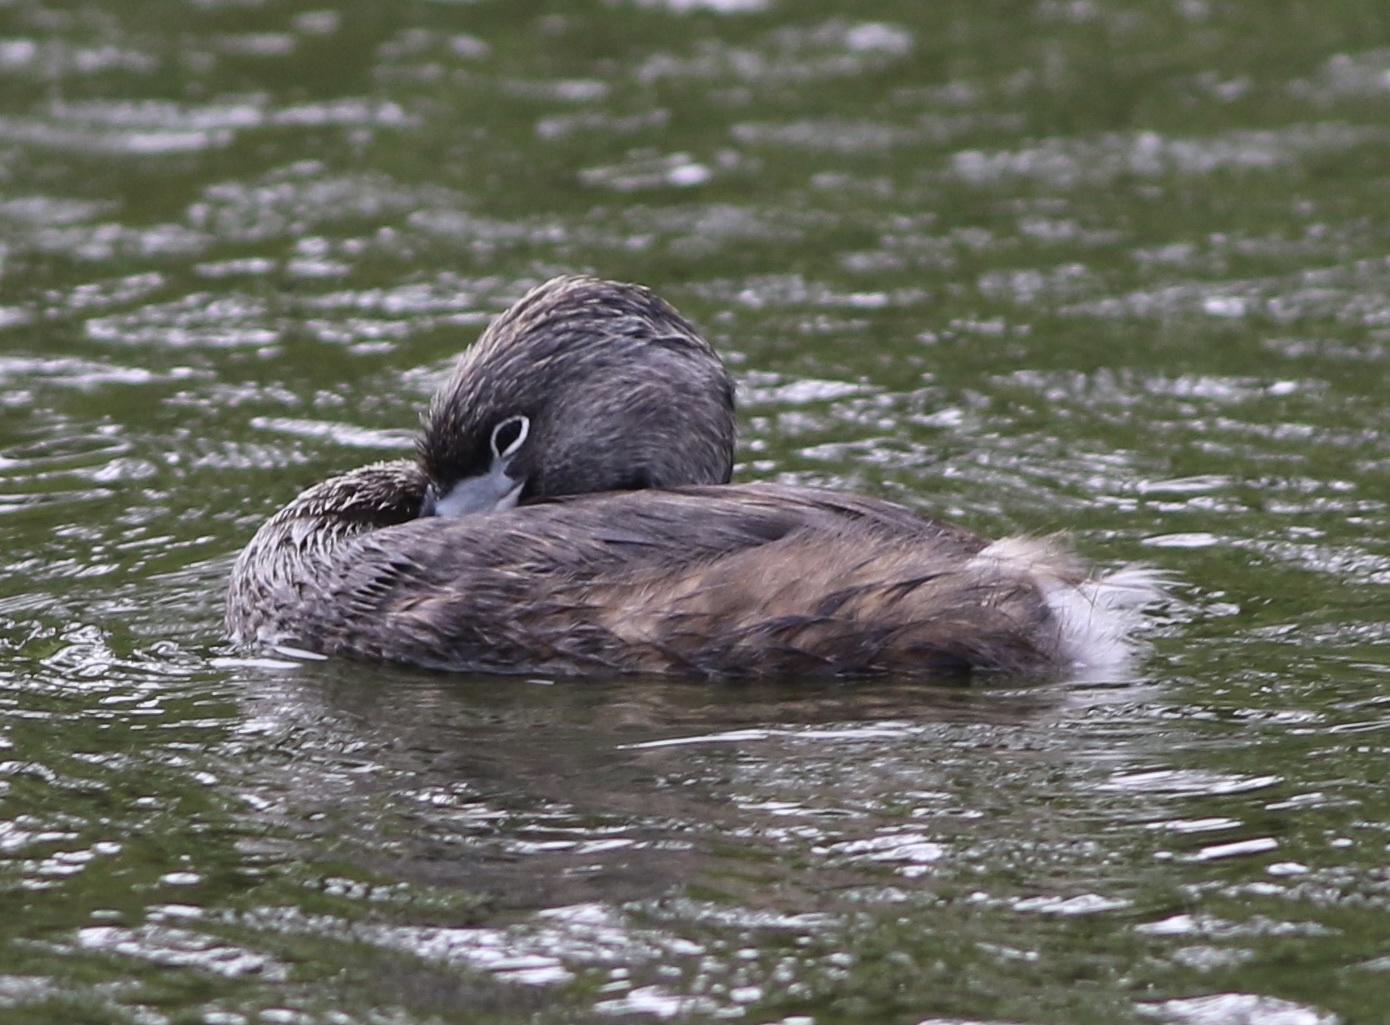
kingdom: Animalia
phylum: Chordata
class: Aves
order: Podicipediformes
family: Podicipedidae
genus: Podilymbus
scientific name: Podilymbus podiceps
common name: Pied-billed grebe
